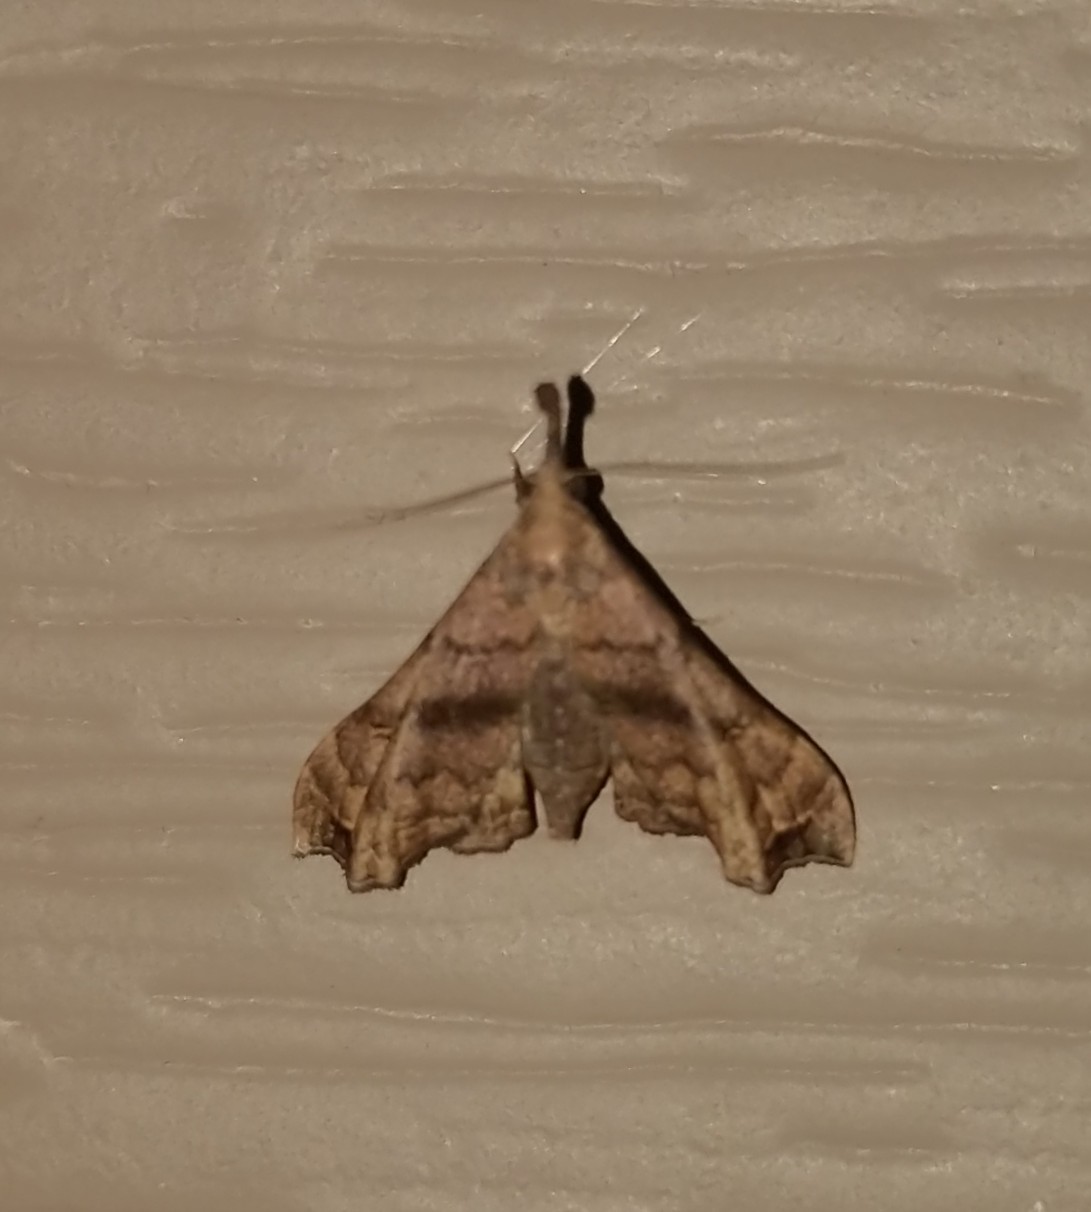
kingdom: Animalia
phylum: Arthropoda
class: Insecta
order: Lepidoptera
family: Erebidae
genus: Palthis
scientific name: Palthis asopialis
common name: Faint-spotted palthis moth
